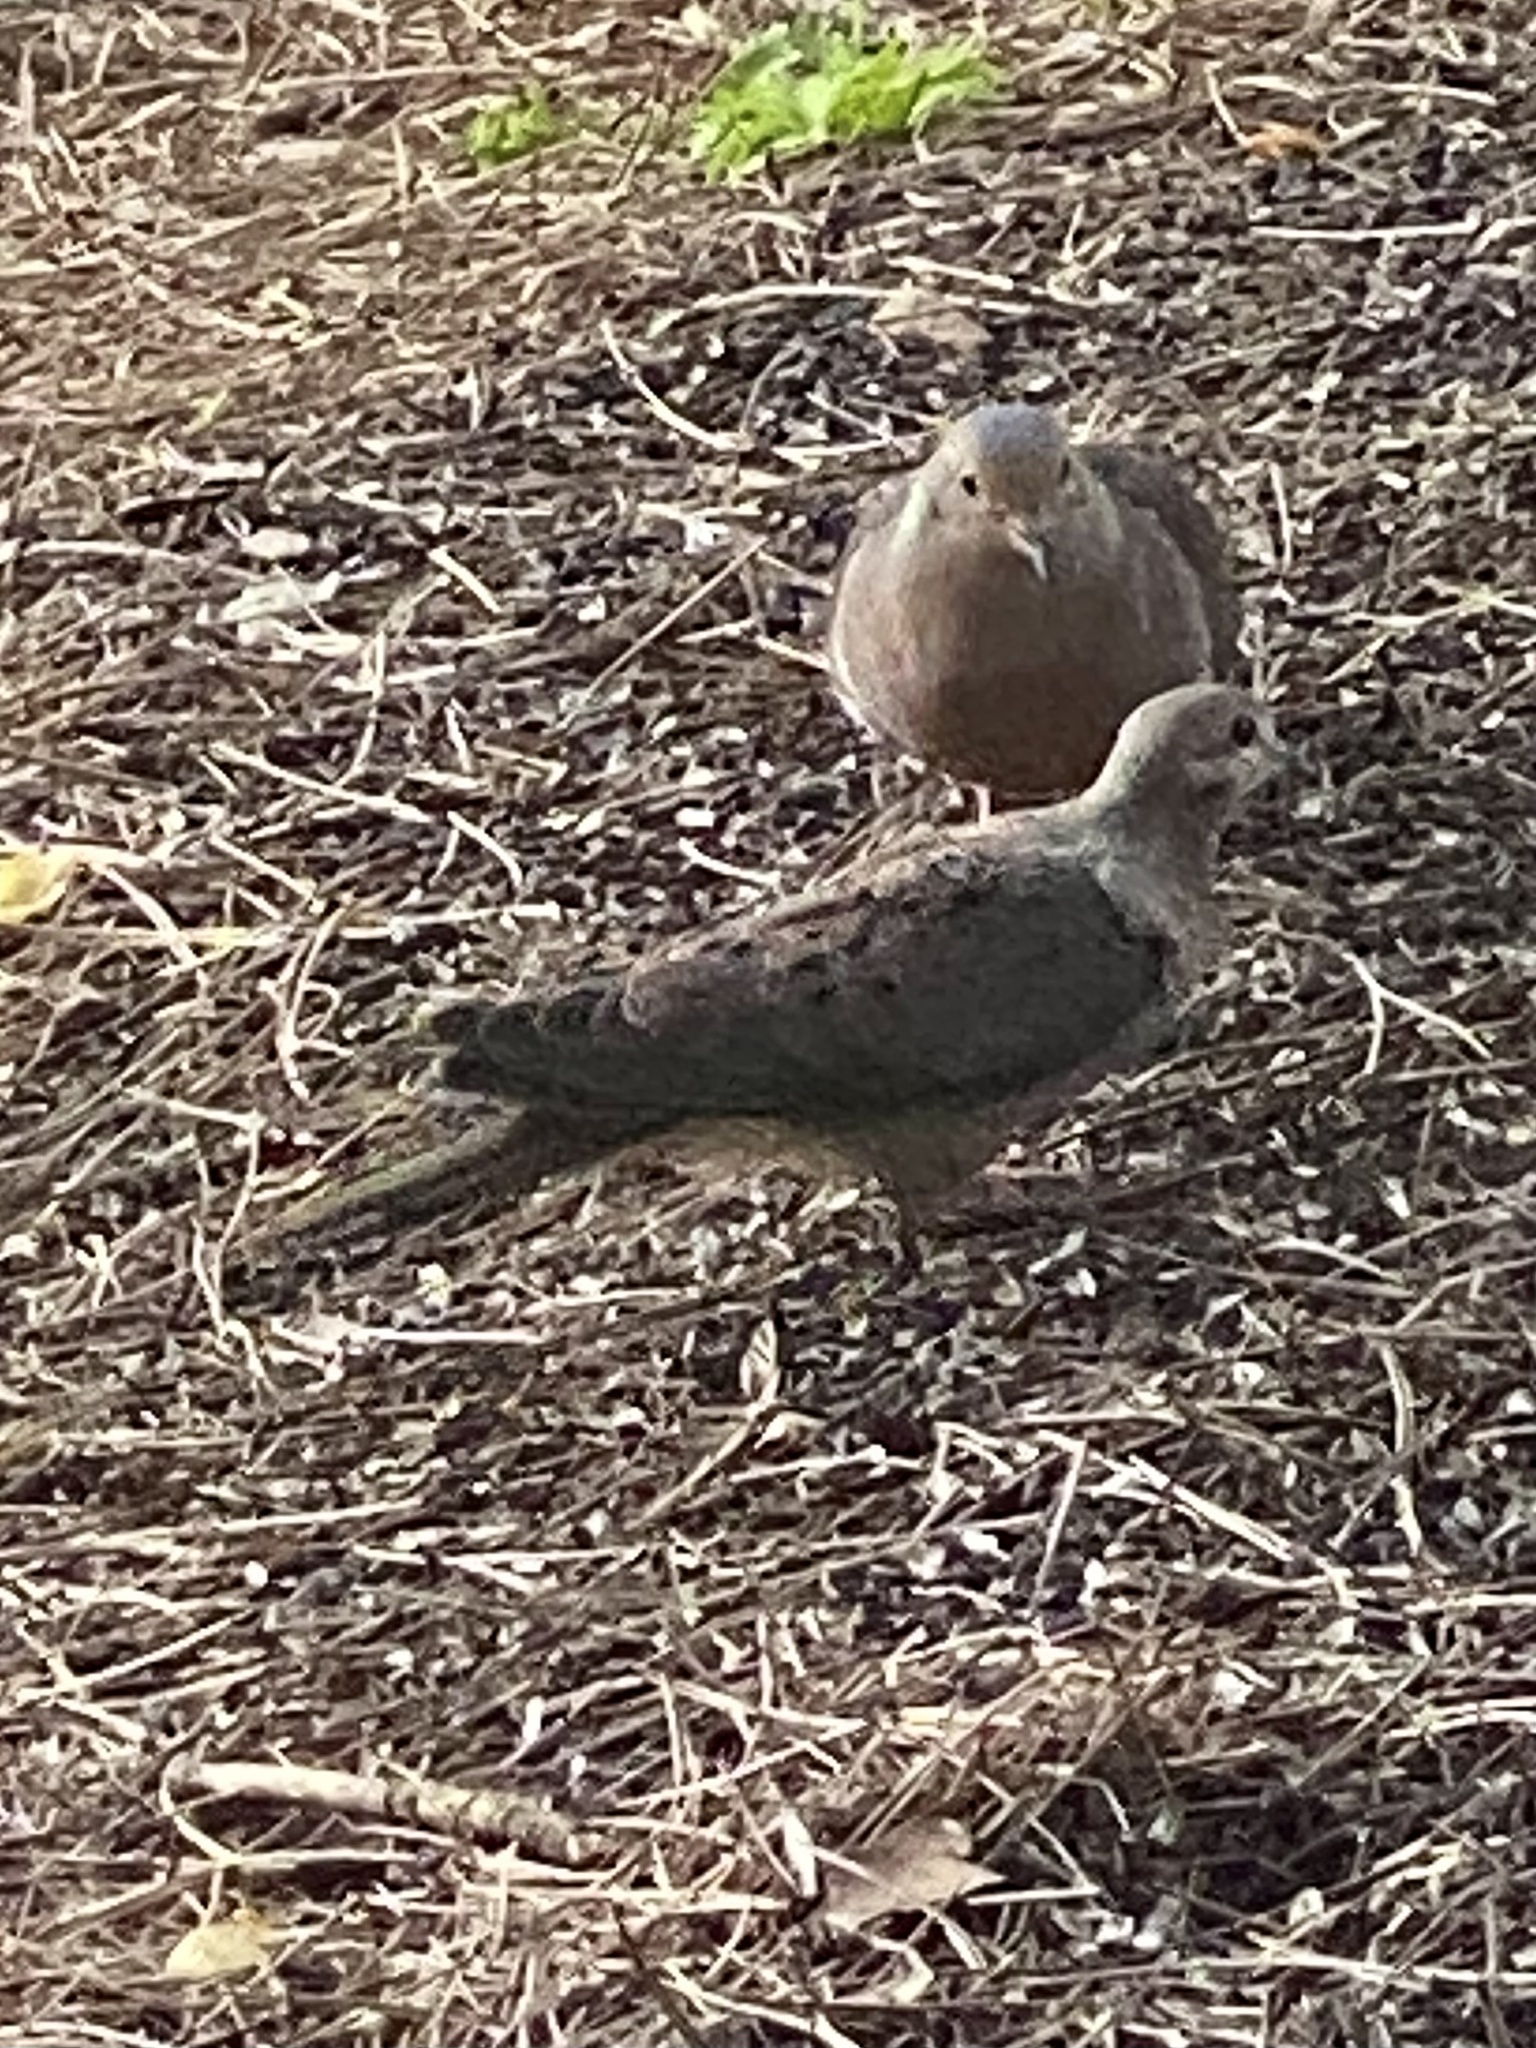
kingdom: Animalia
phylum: Chordata
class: Aves
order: Columbiformes
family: Columbidae
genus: Zenaida
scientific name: Zenaida macroura
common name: Mourning dove
